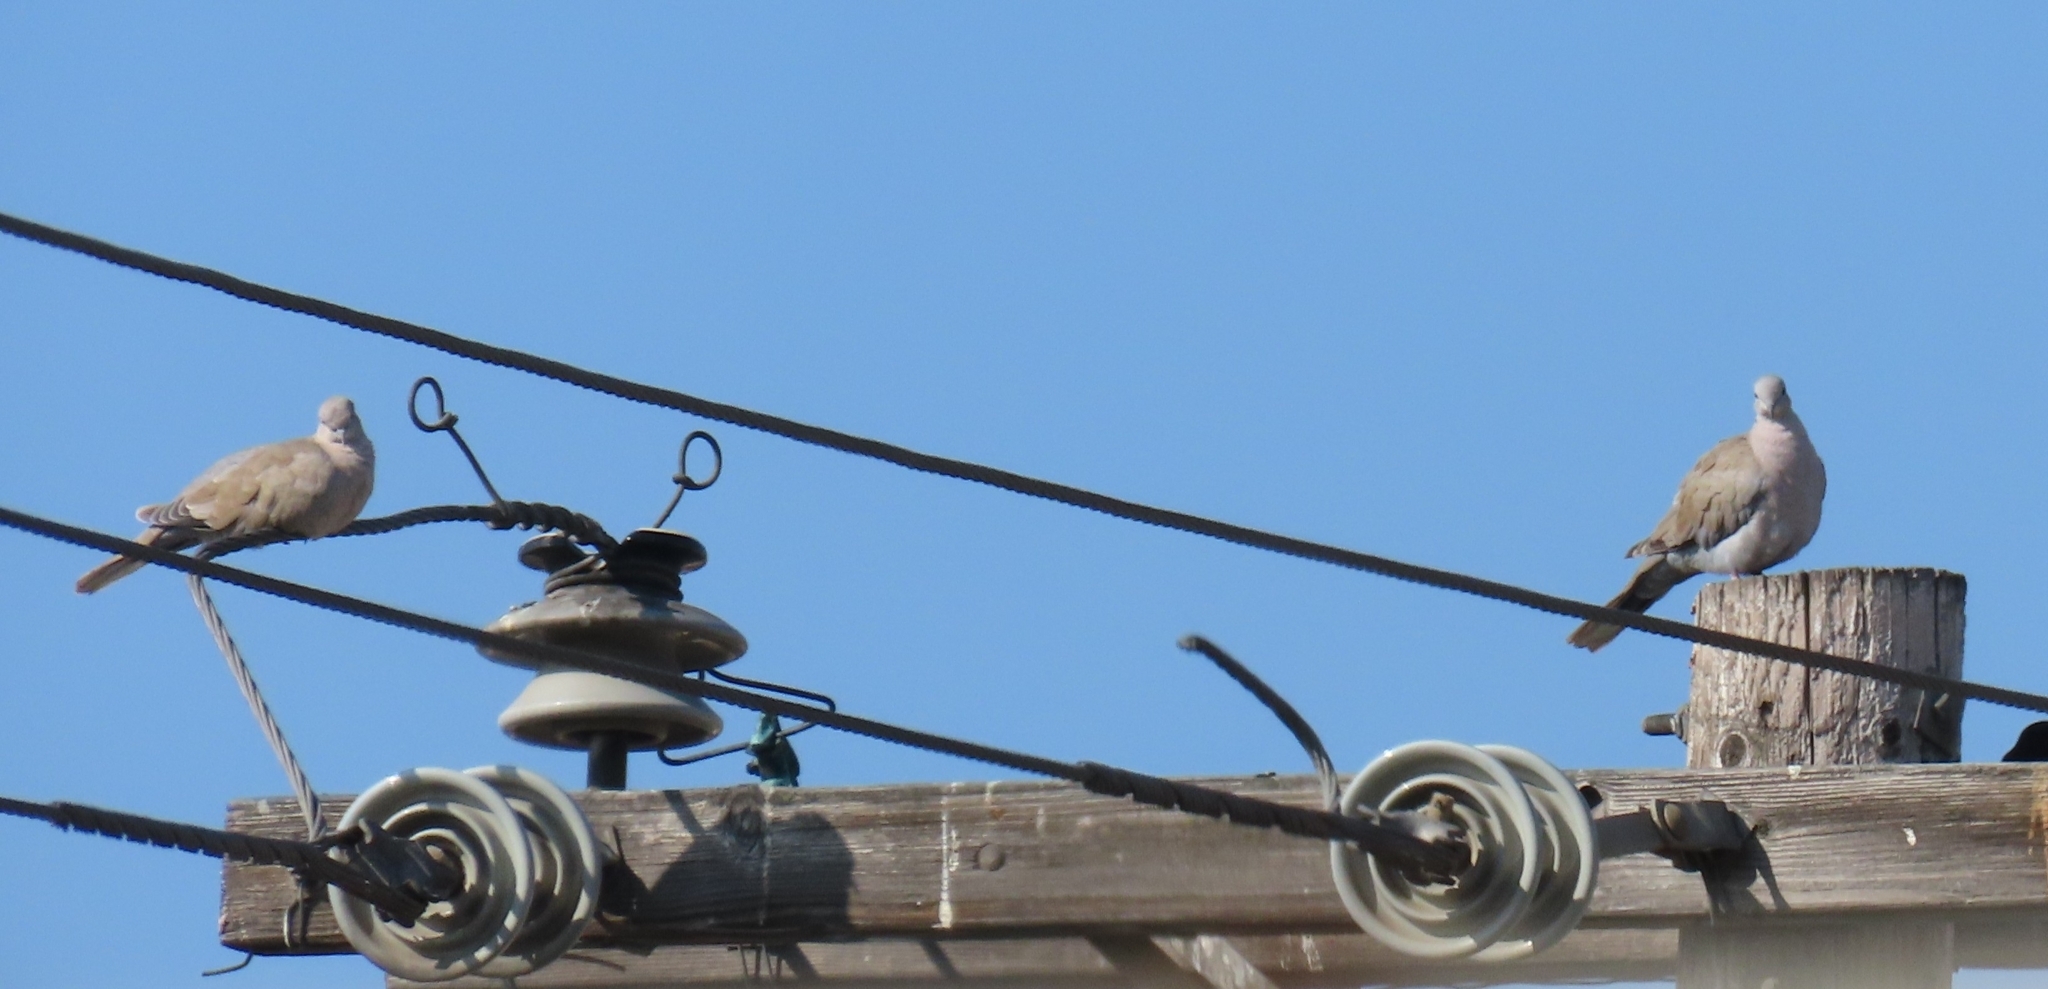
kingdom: Animalia
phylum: Chordata
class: Aves
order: Columbiformes
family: Columbidae
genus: Streptopelia
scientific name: Streptopelia decaocto
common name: Eurasian collared dove
